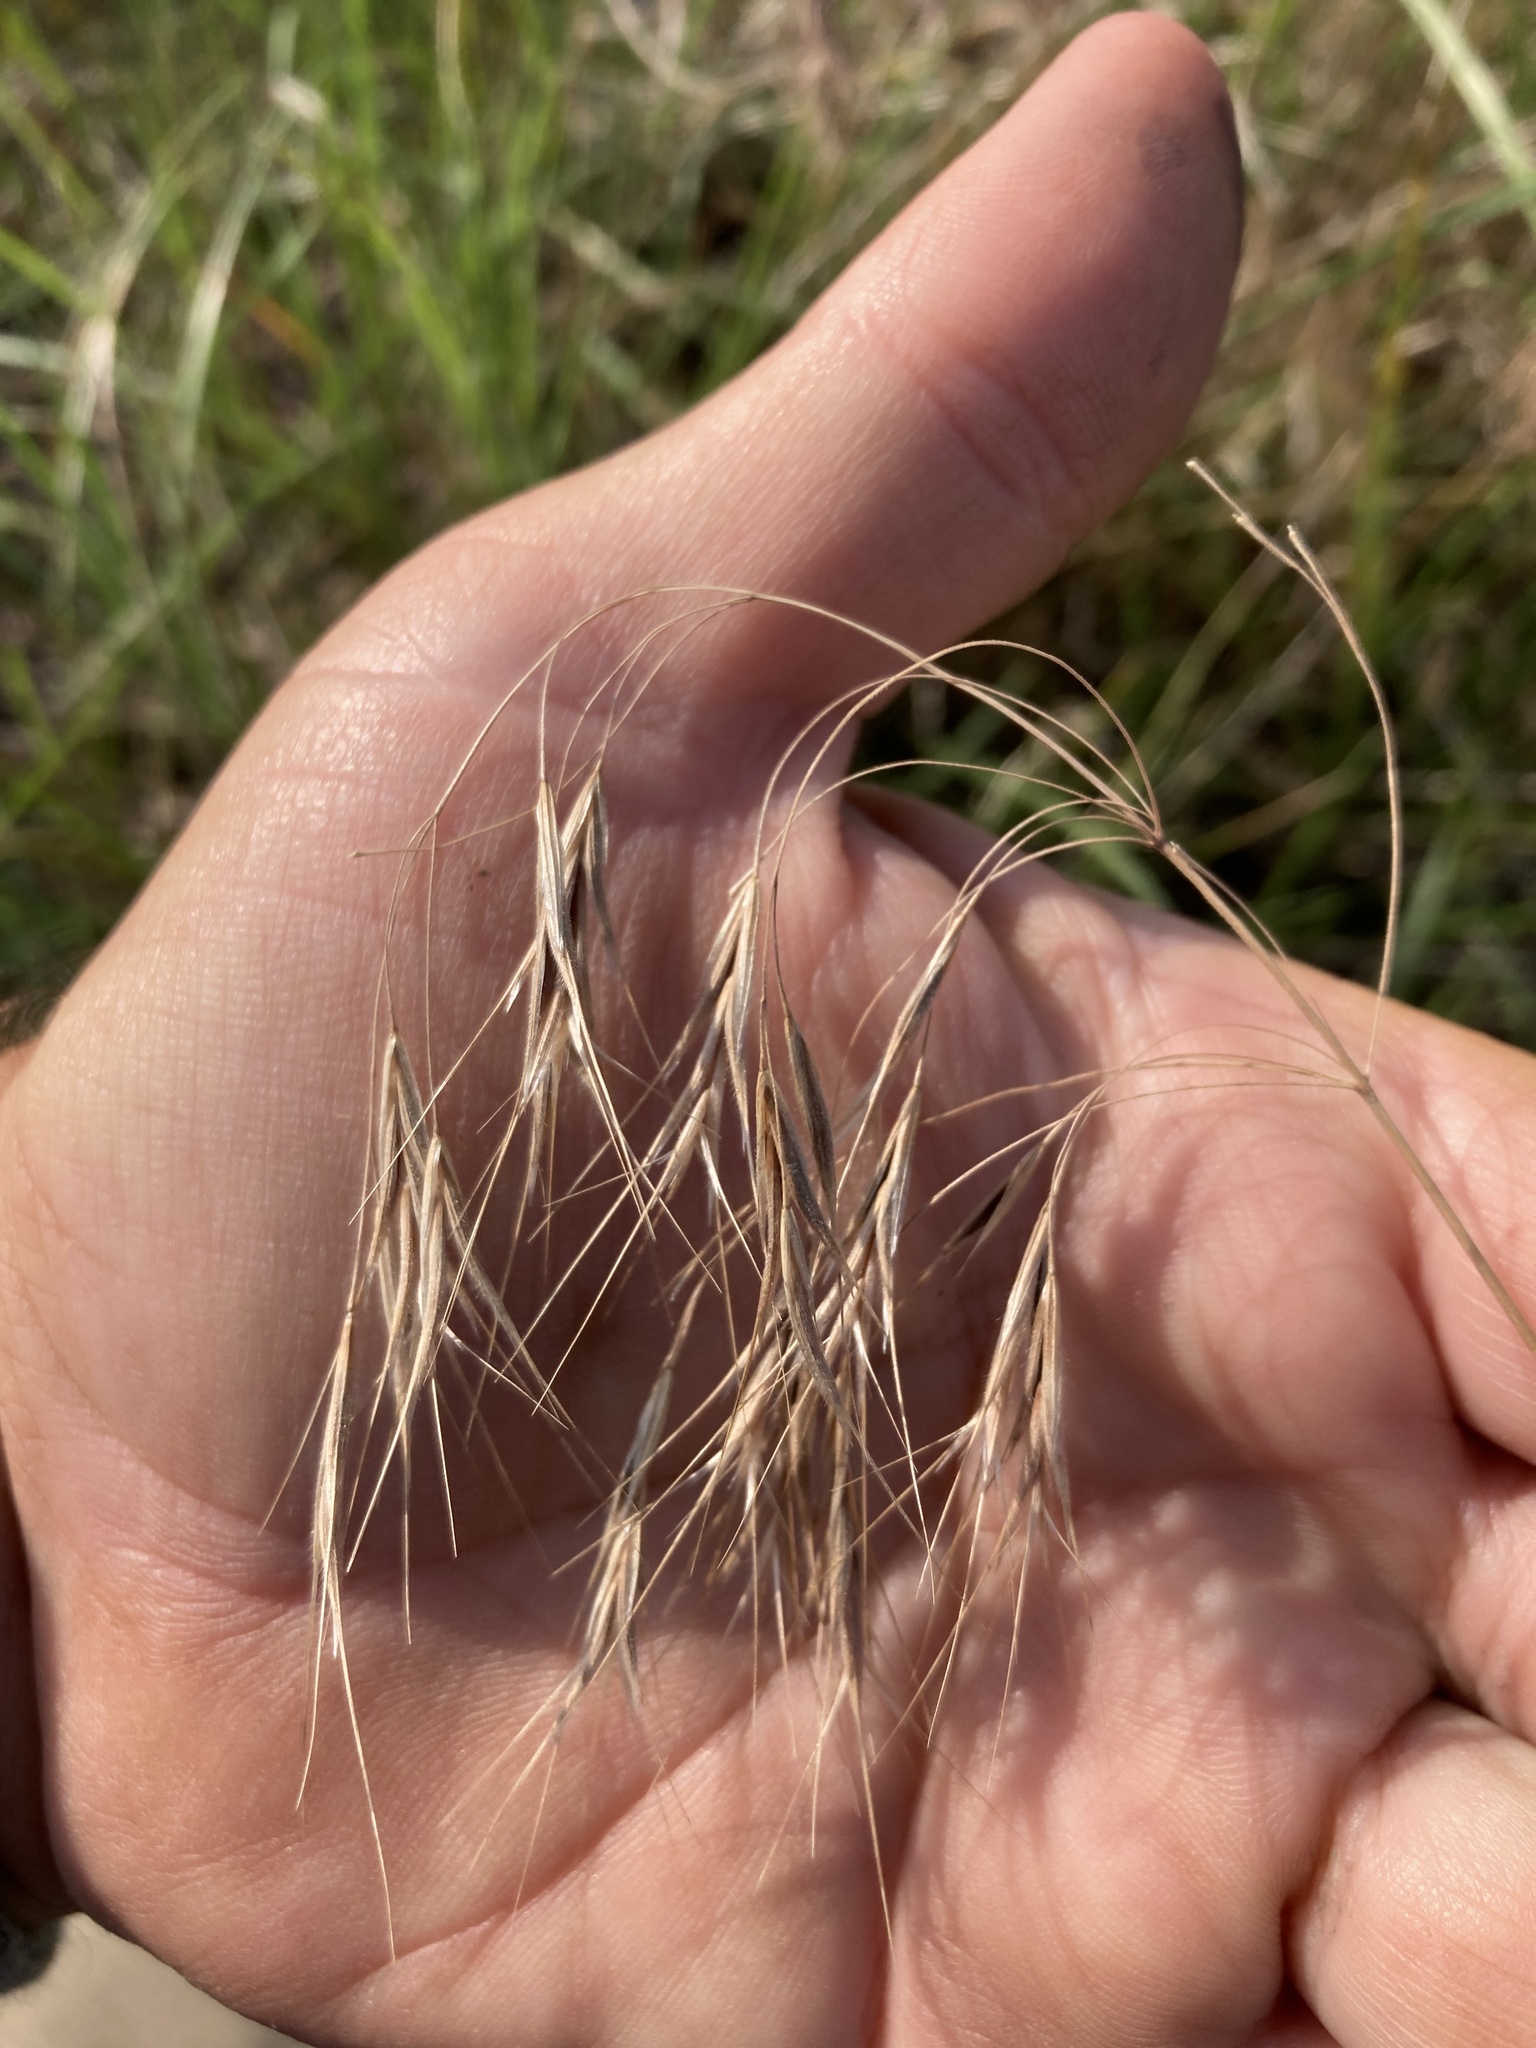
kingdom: Plantae
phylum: Tracheophyta
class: Liliopsida
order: Poales
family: Poaceae
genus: Bromus
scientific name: Bromus tectorum
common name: Cheatgrass
